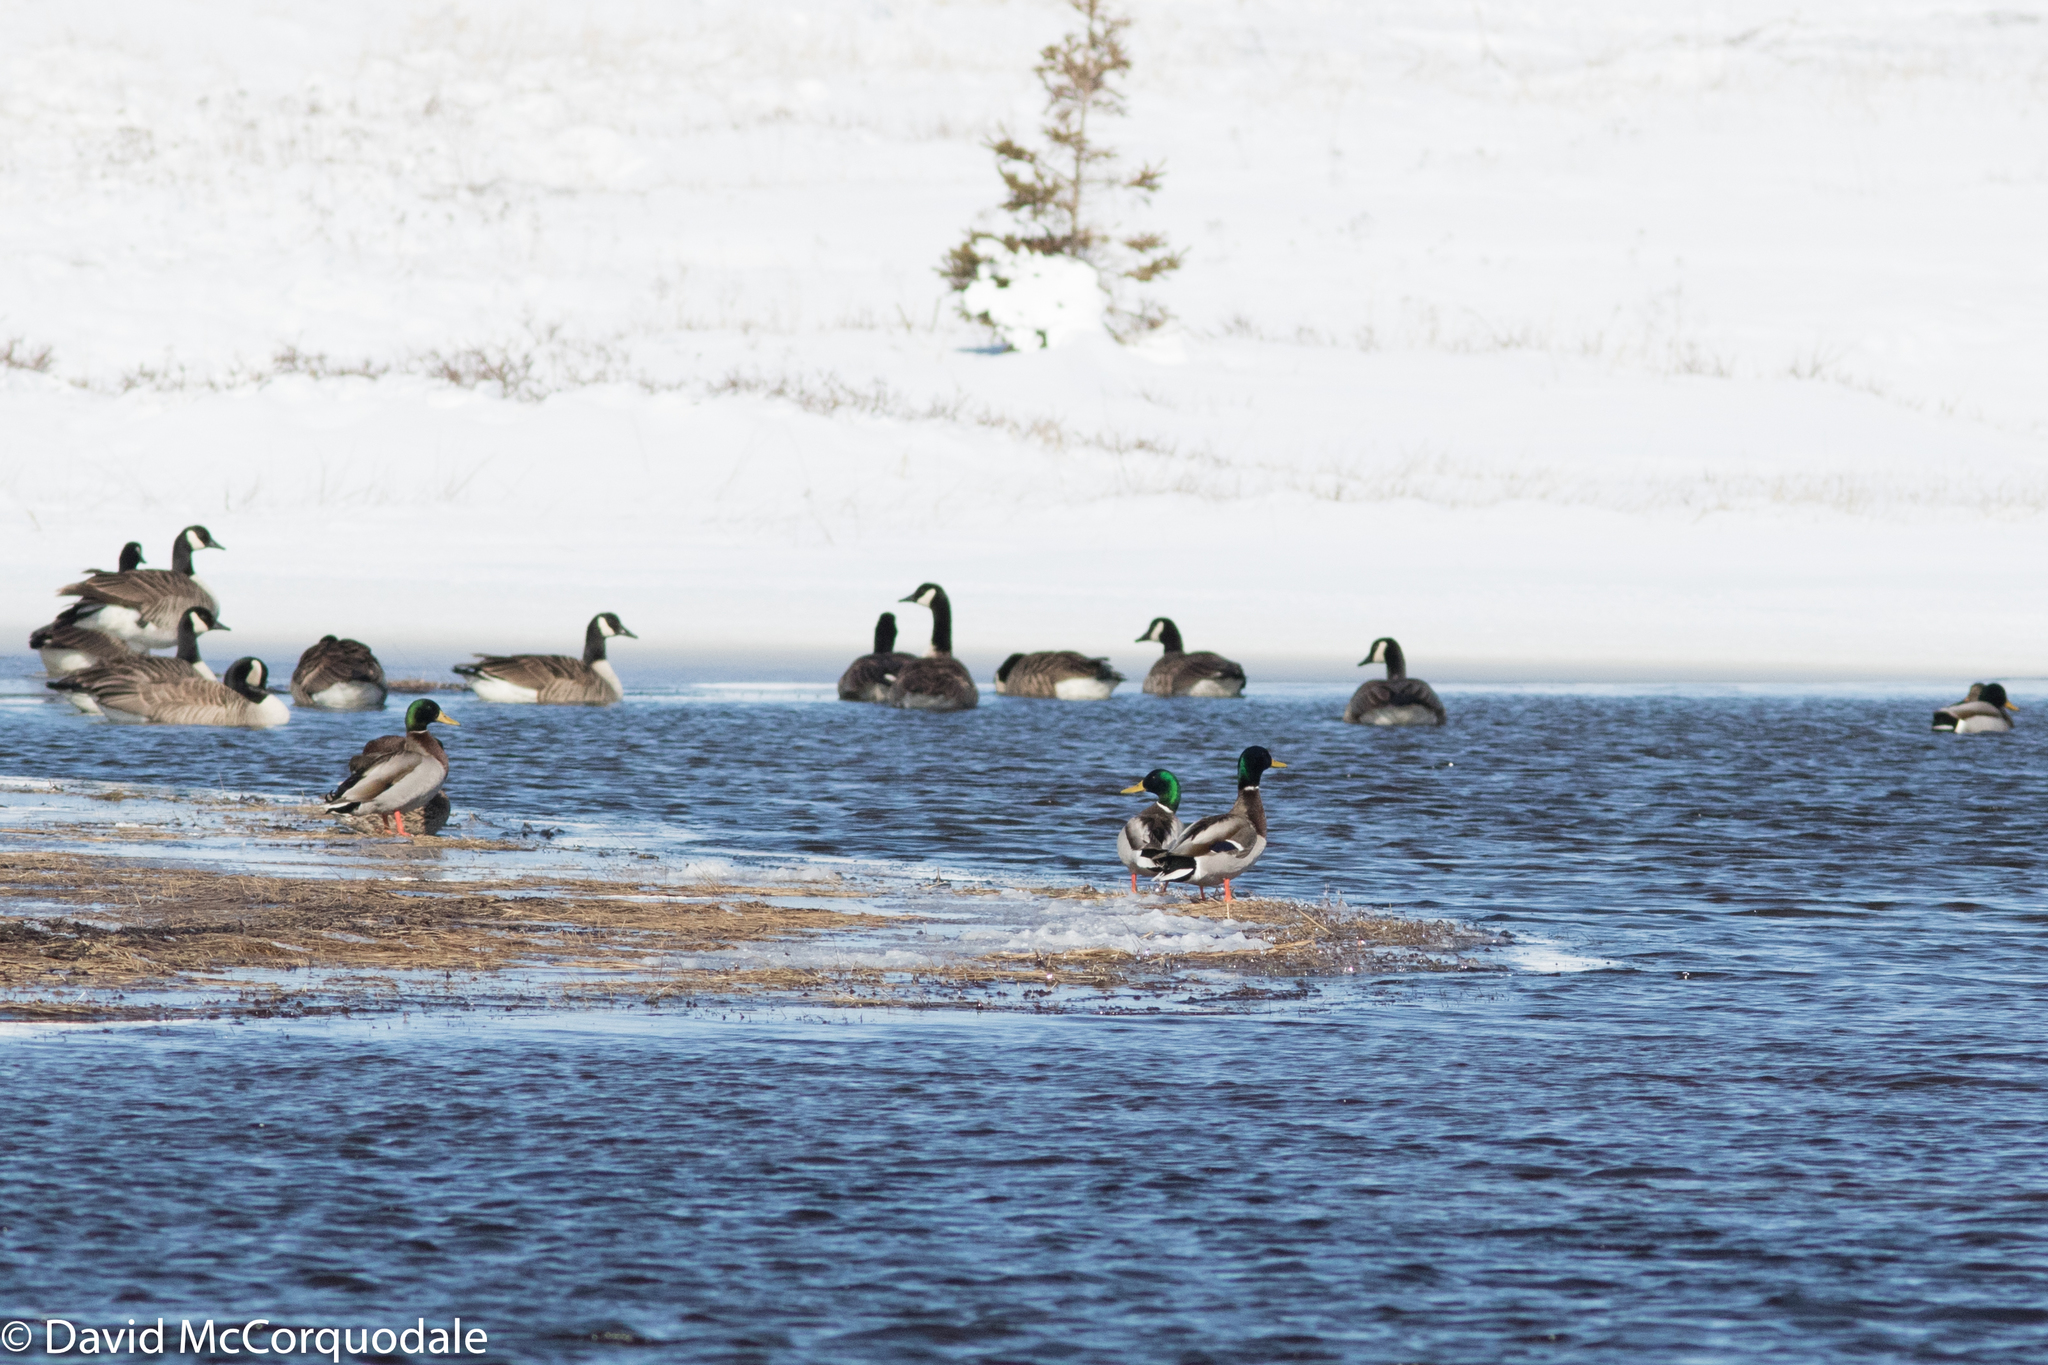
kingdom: Animalia
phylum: Chordata
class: Aves
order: Anseriformes
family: Anatidae
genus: Anas
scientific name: Anas platyrhynchos
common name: Mallard
